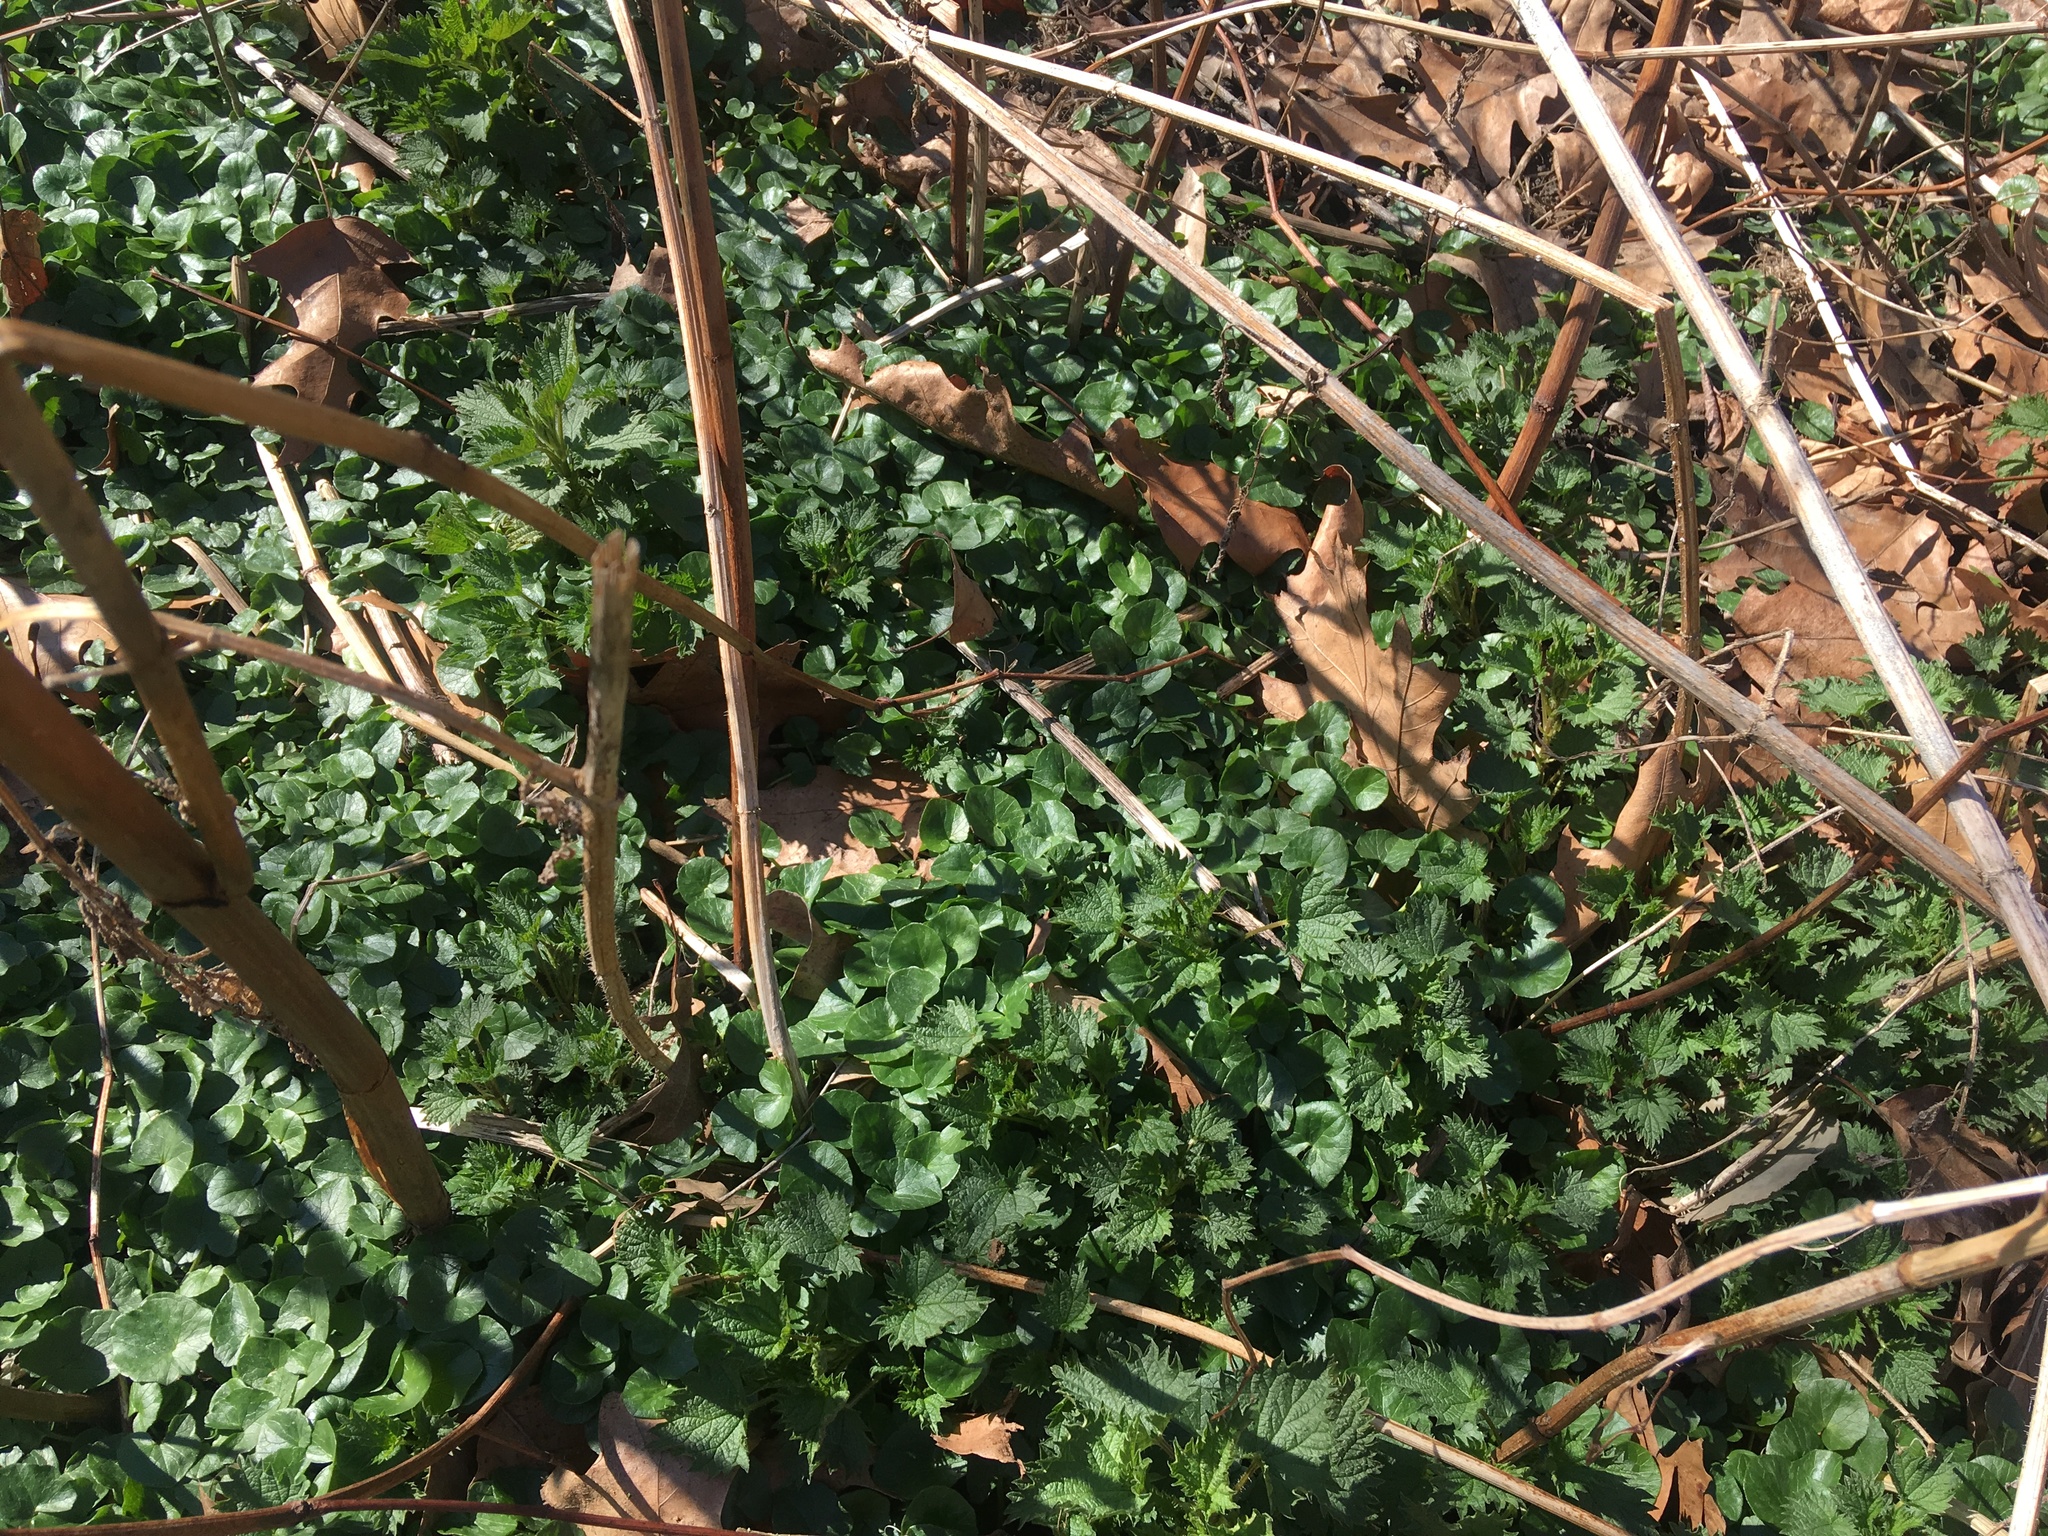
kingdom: Plantae
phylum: Tracheophyta
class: Magnoliopsida
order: Ranunculales
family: Ranunculaceae
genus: Ficaria
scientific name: Ficaria verna
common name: Lesser celandine
